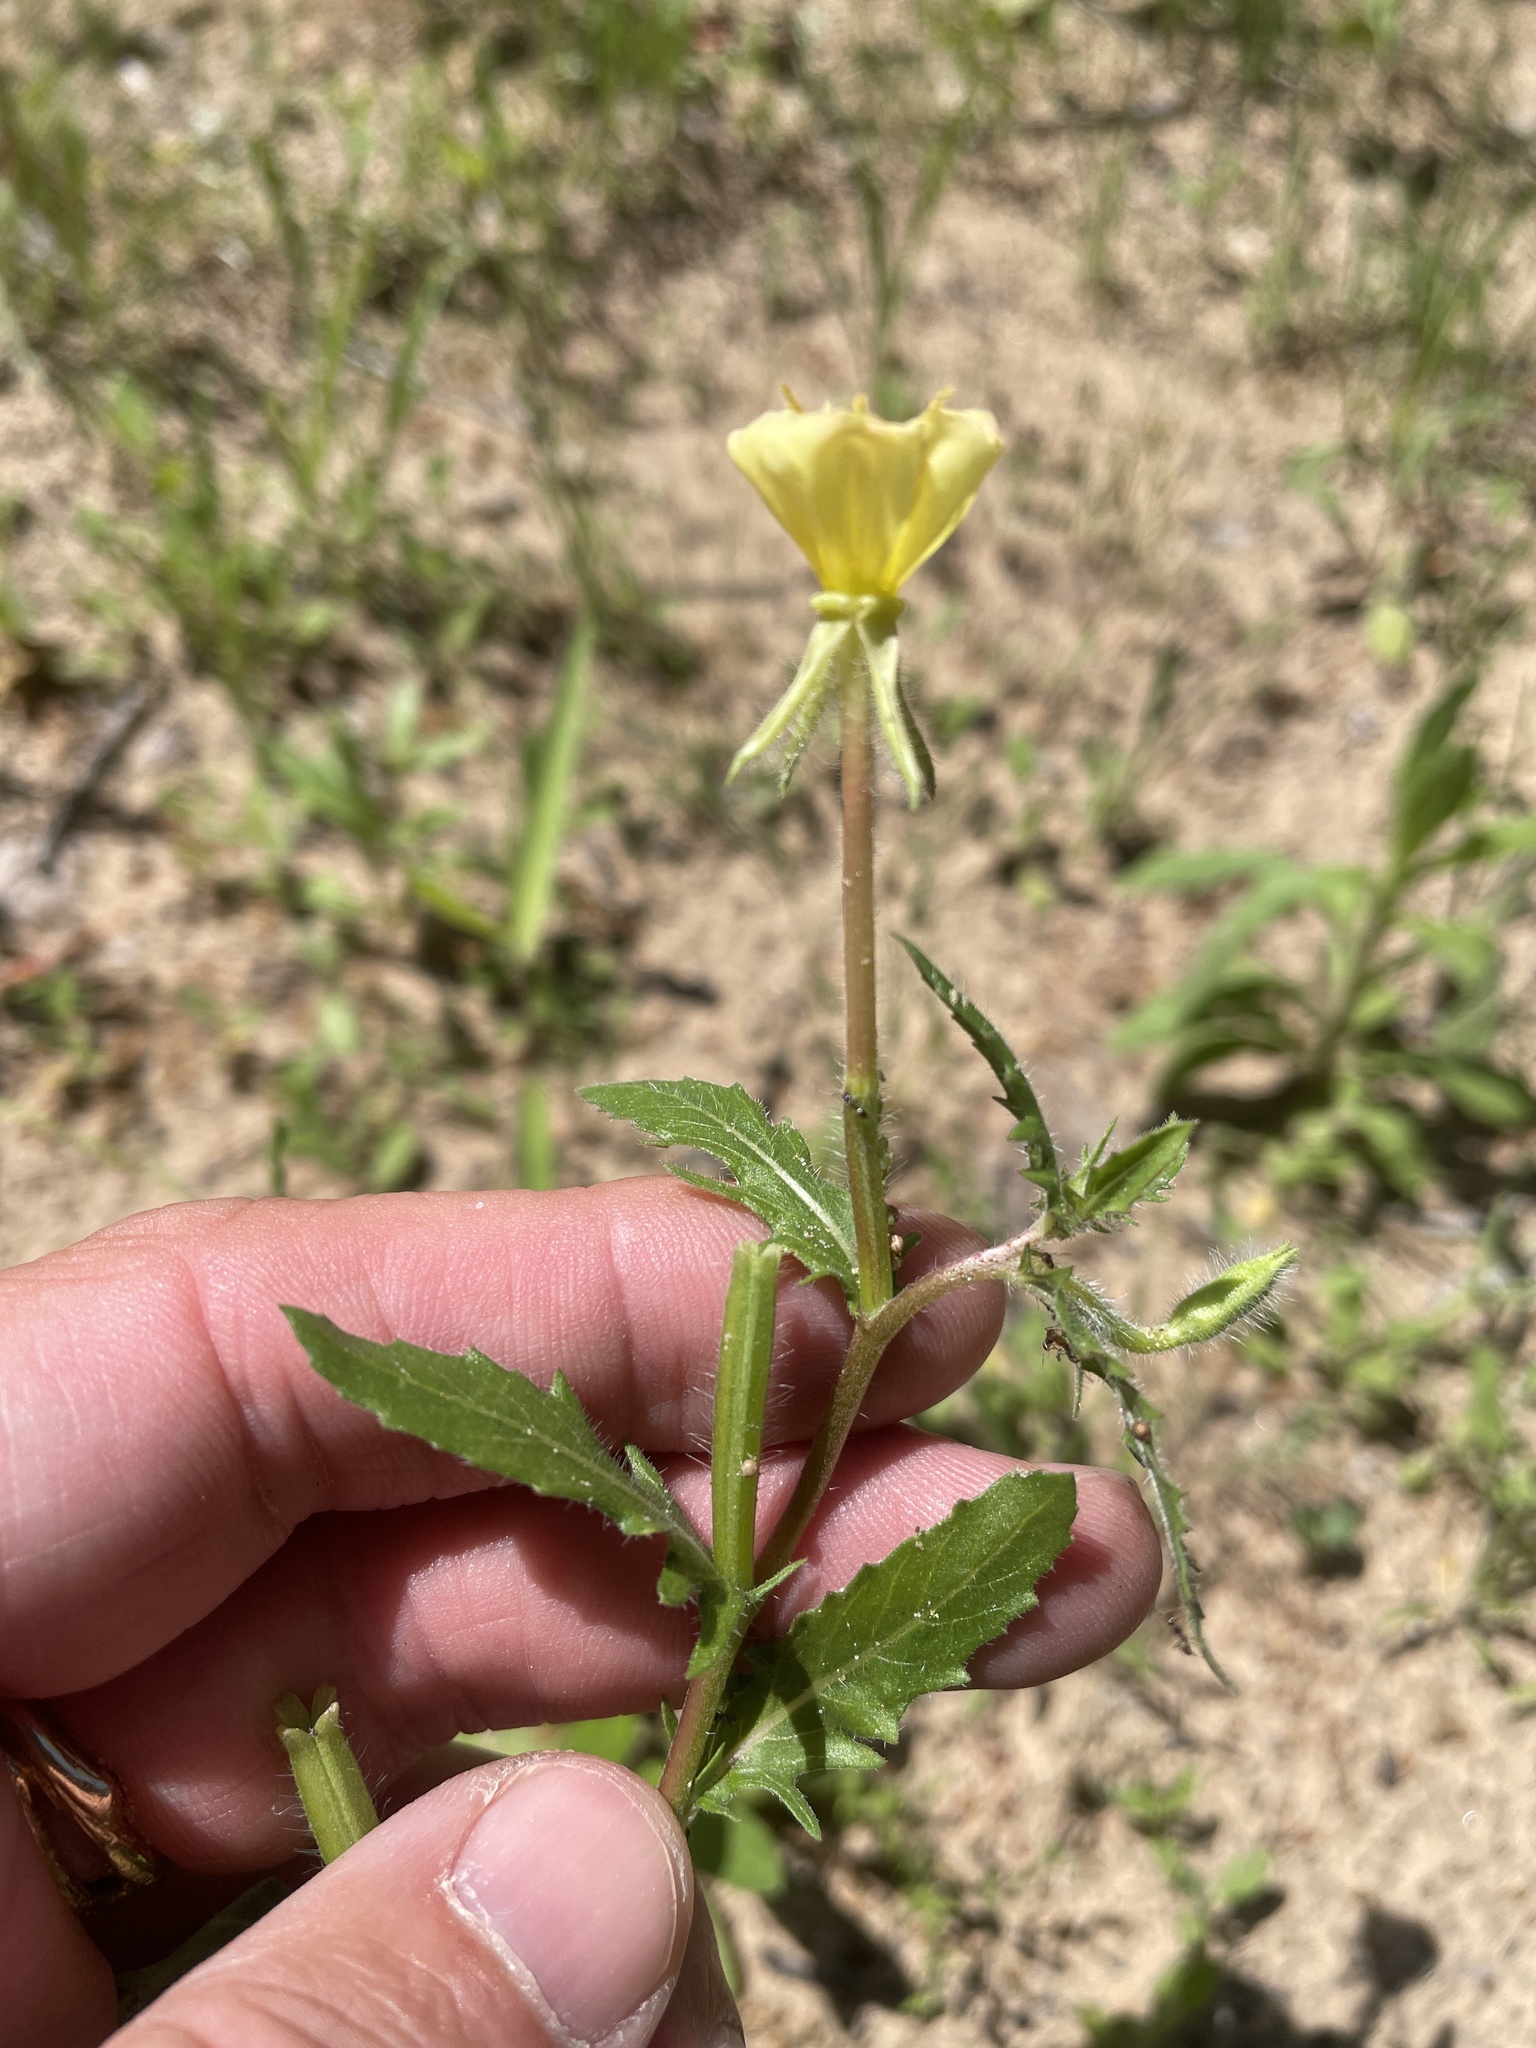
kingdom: Plantae
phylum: Tracheophyta
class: Magnoliopsida
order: Myrtales
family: Onagraceae
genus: Oenothera
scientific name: Oenothera laciniata
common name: Cut-leaved evening-primrose
